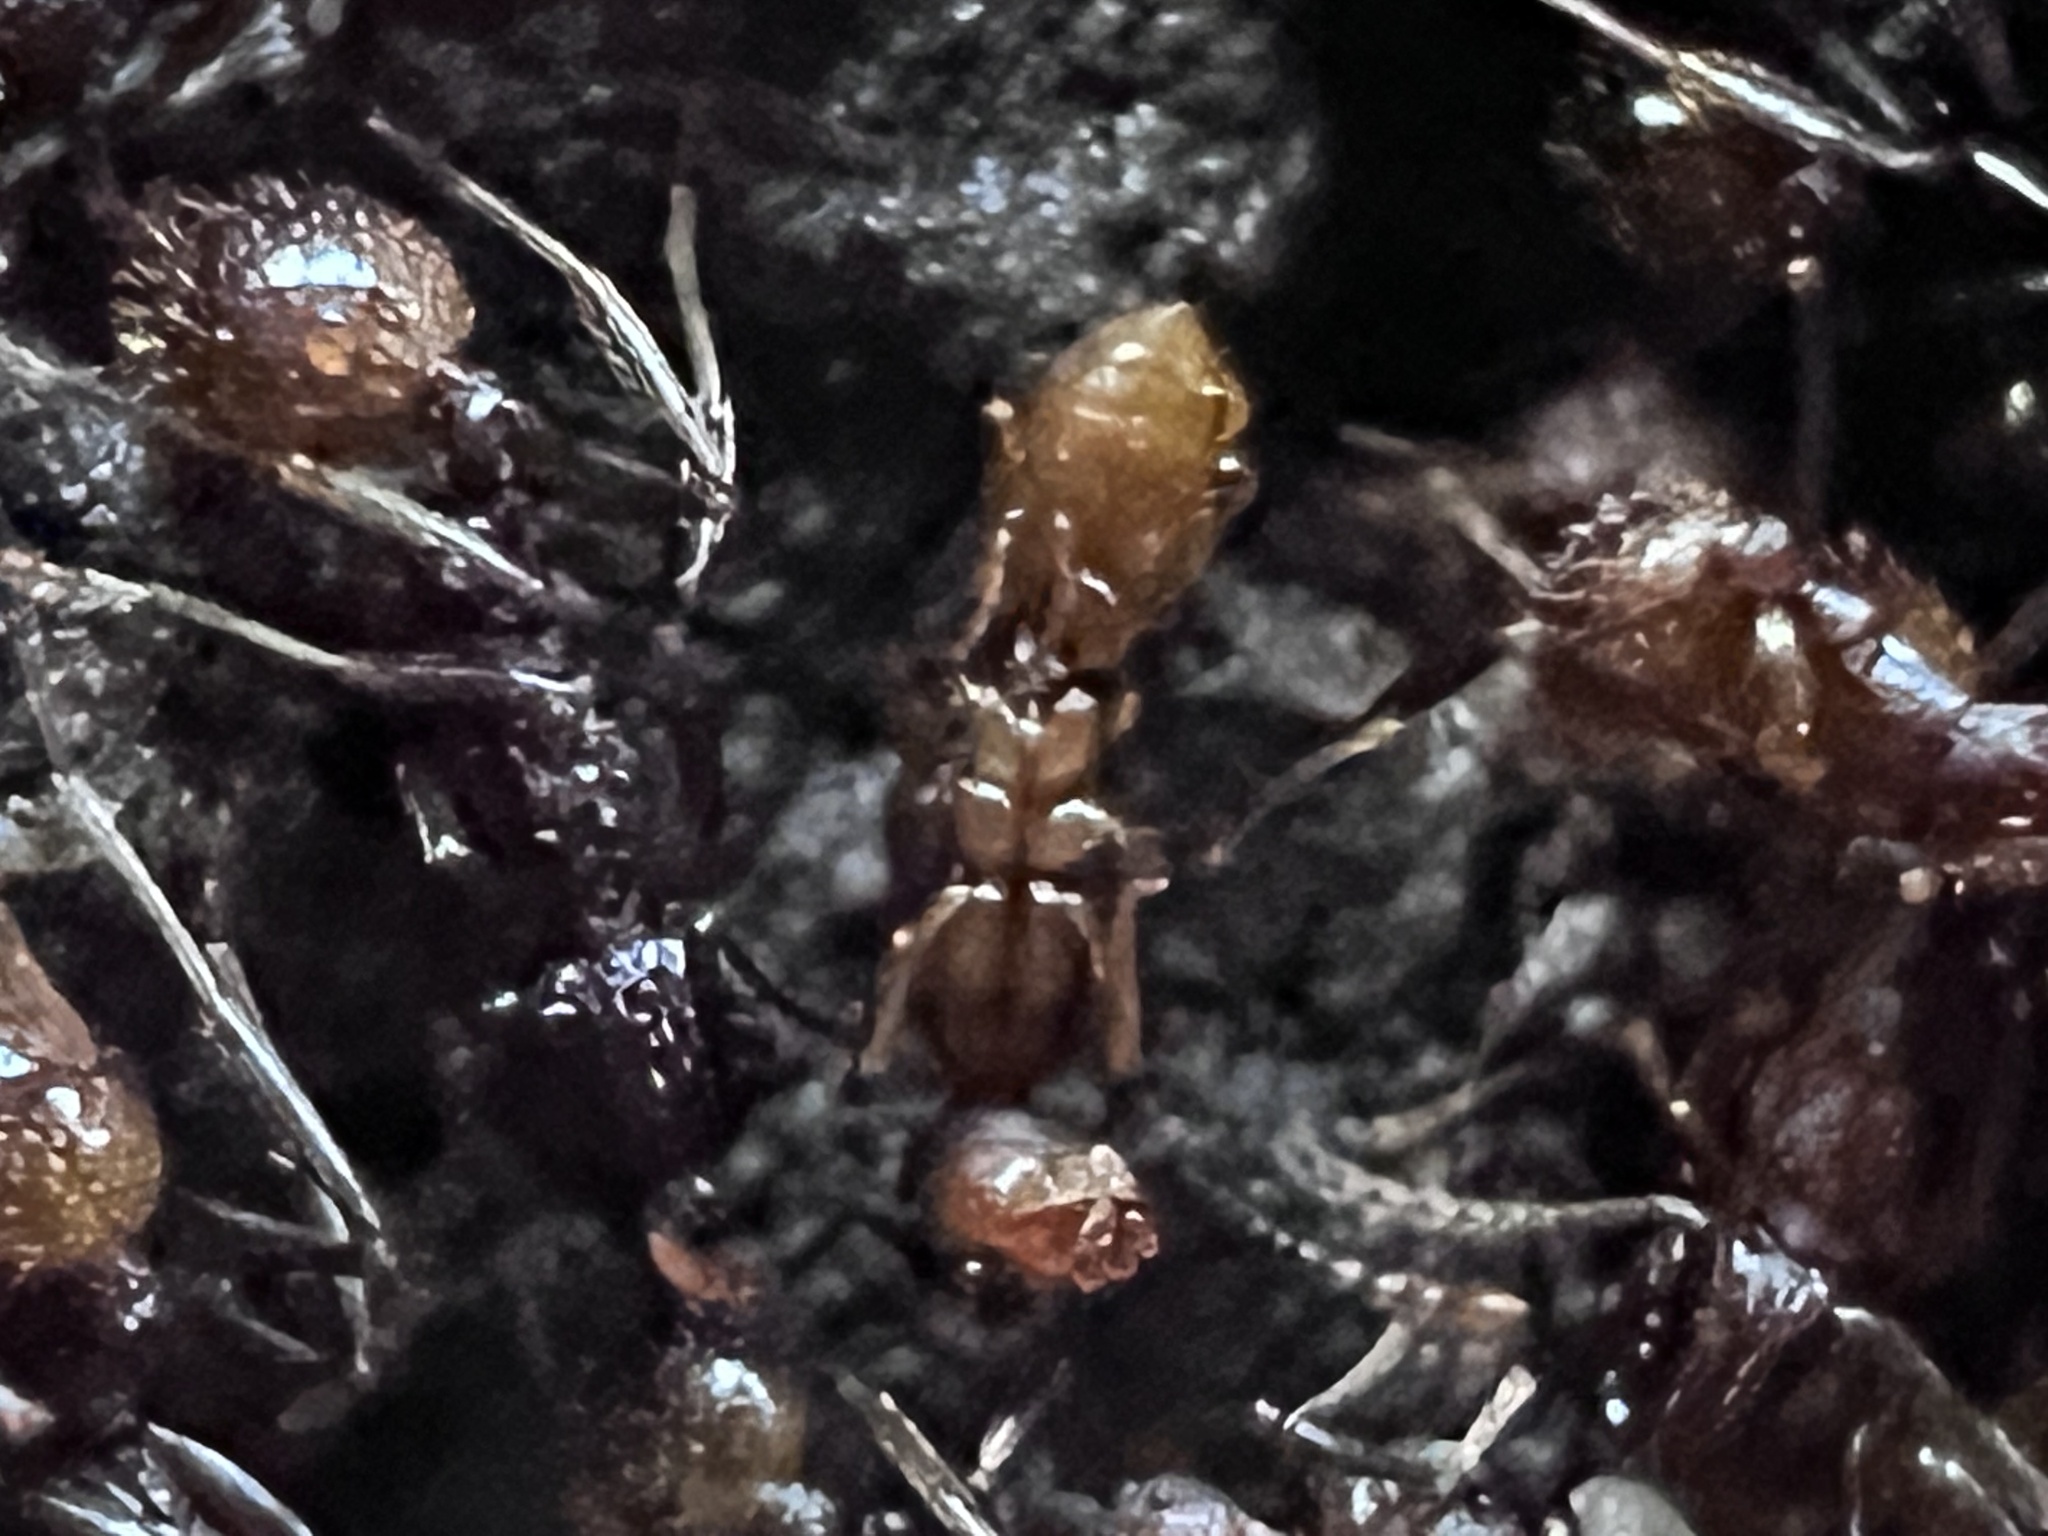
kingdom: Animalia
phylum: Arthropoda
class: Insecta
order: Hymenoptera
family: Formicidae
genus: Aphaenogaster
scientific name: Aphaenogaster fulva
